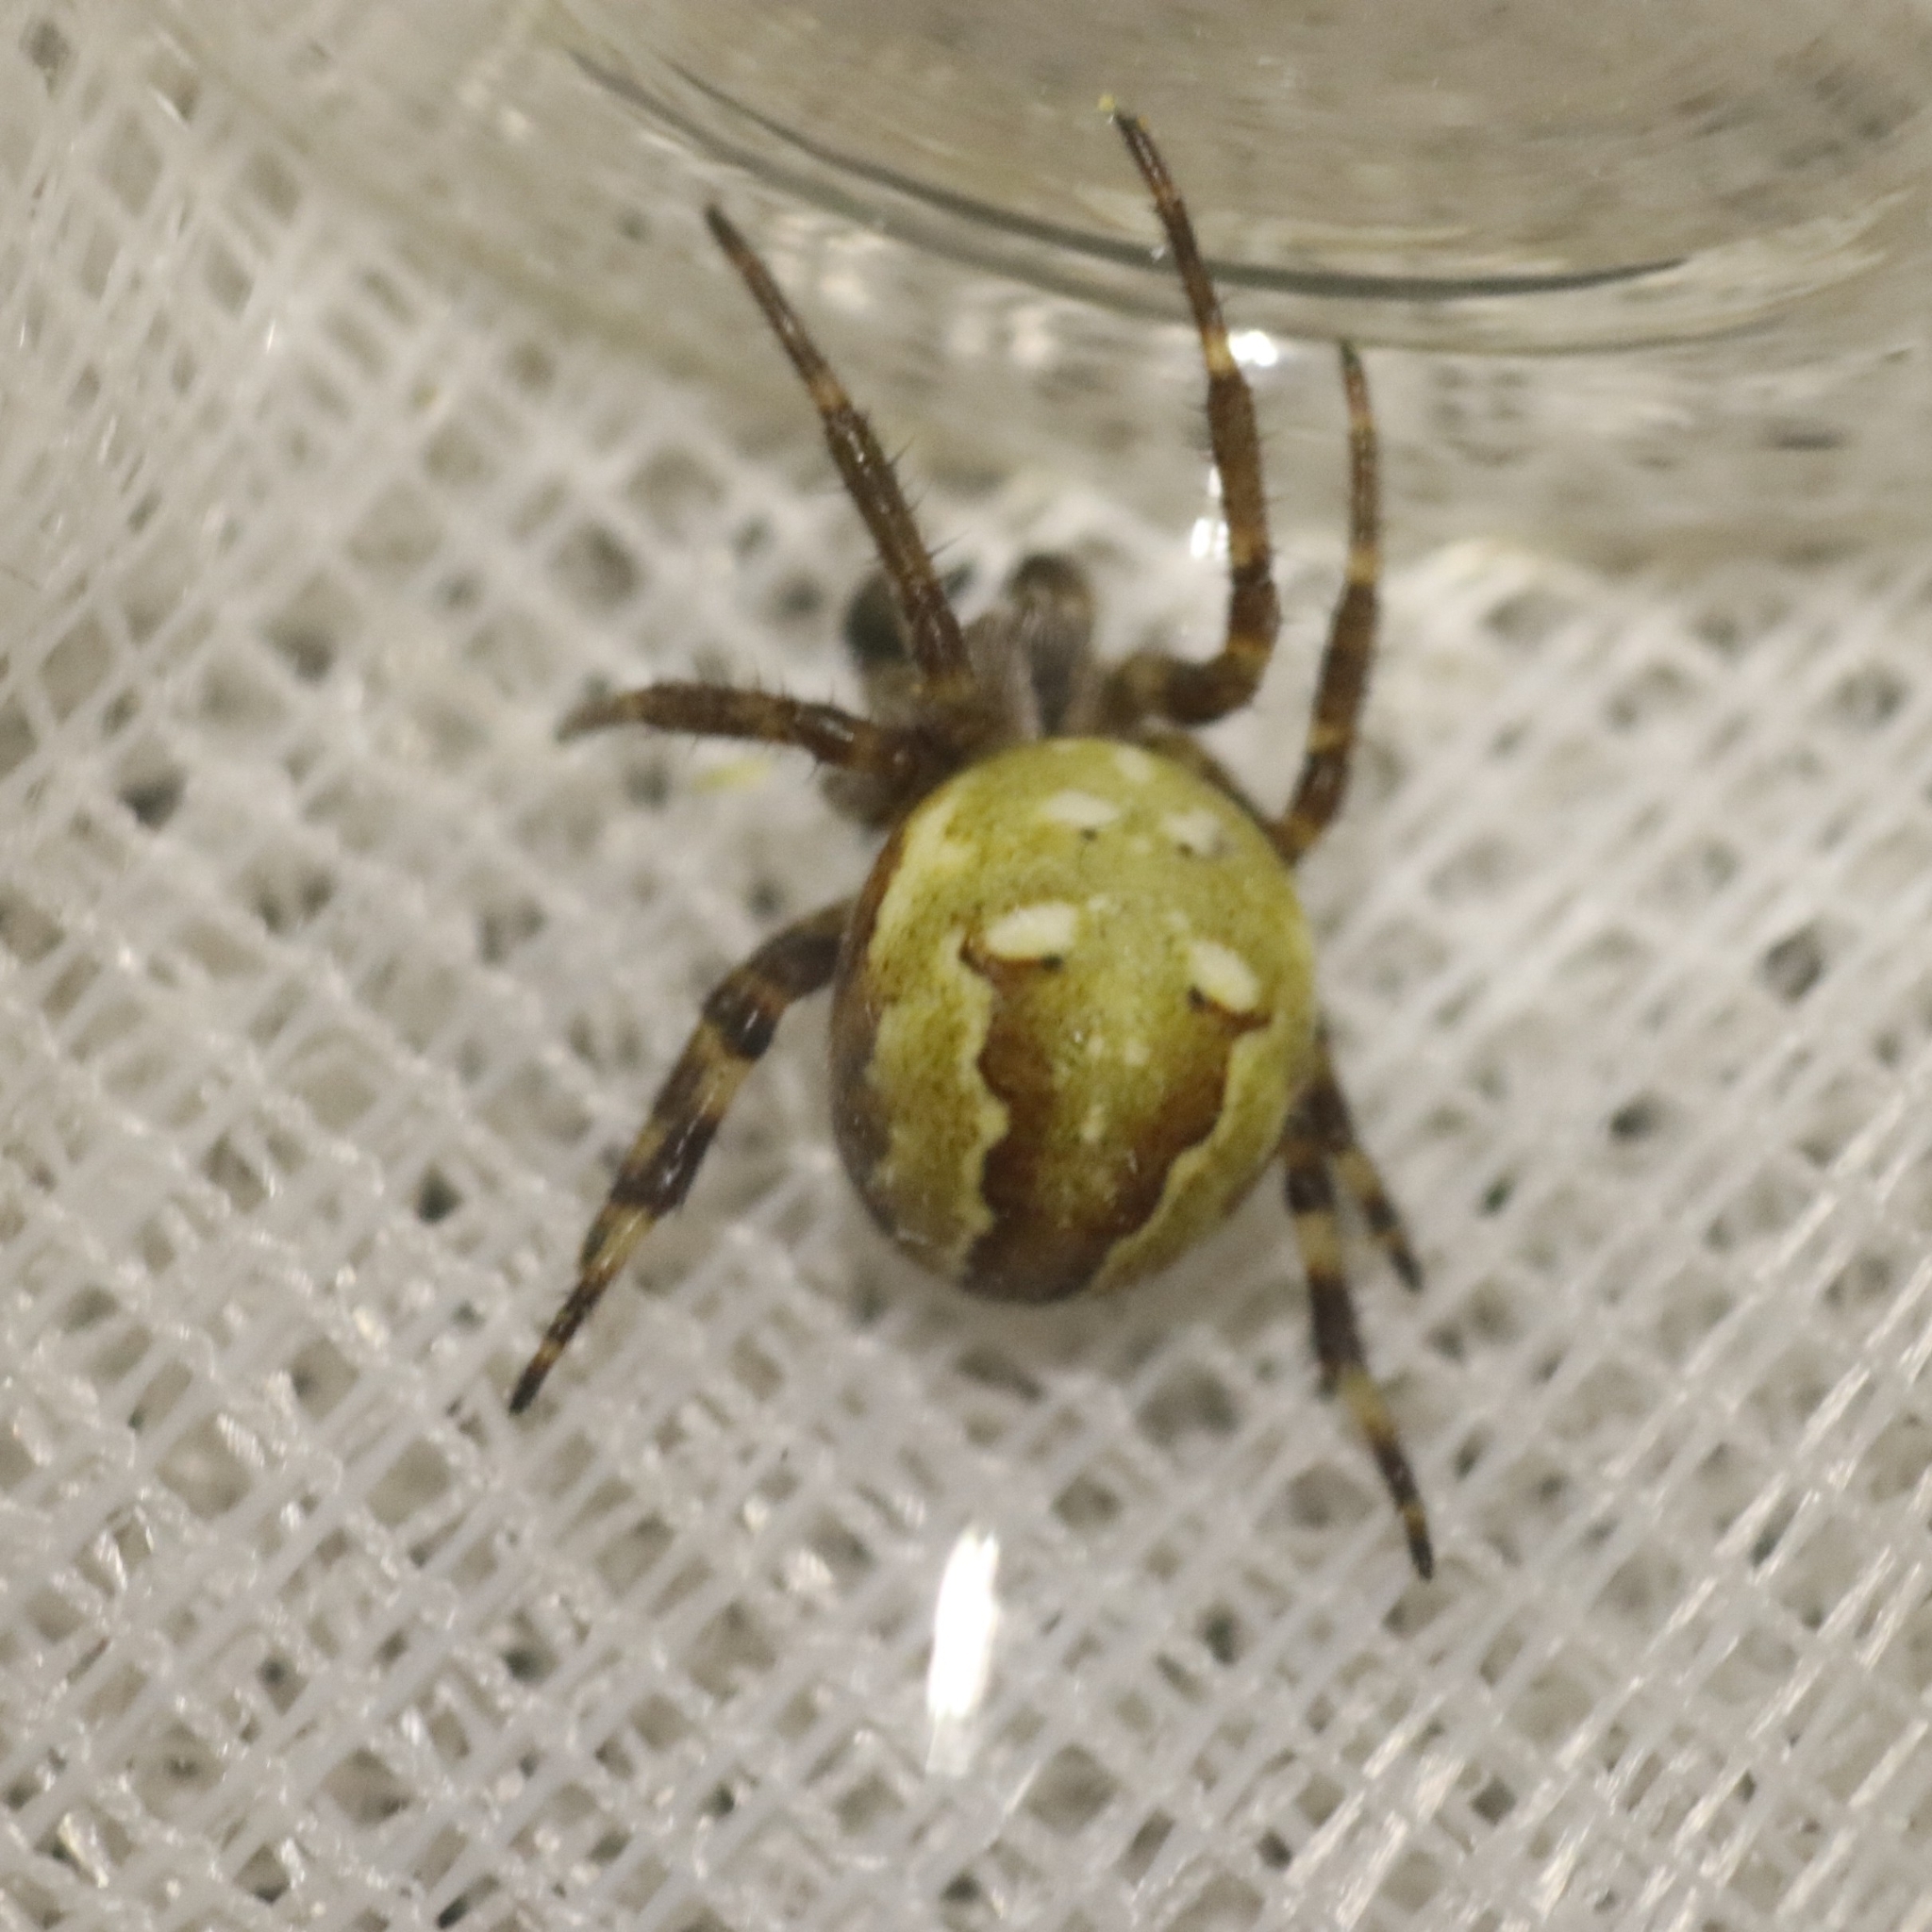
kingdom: Animalia
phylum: Arthropoda
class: Arachnida
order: Araneae
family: Araneidae
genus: Araneus
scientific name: Araneus quadratus
